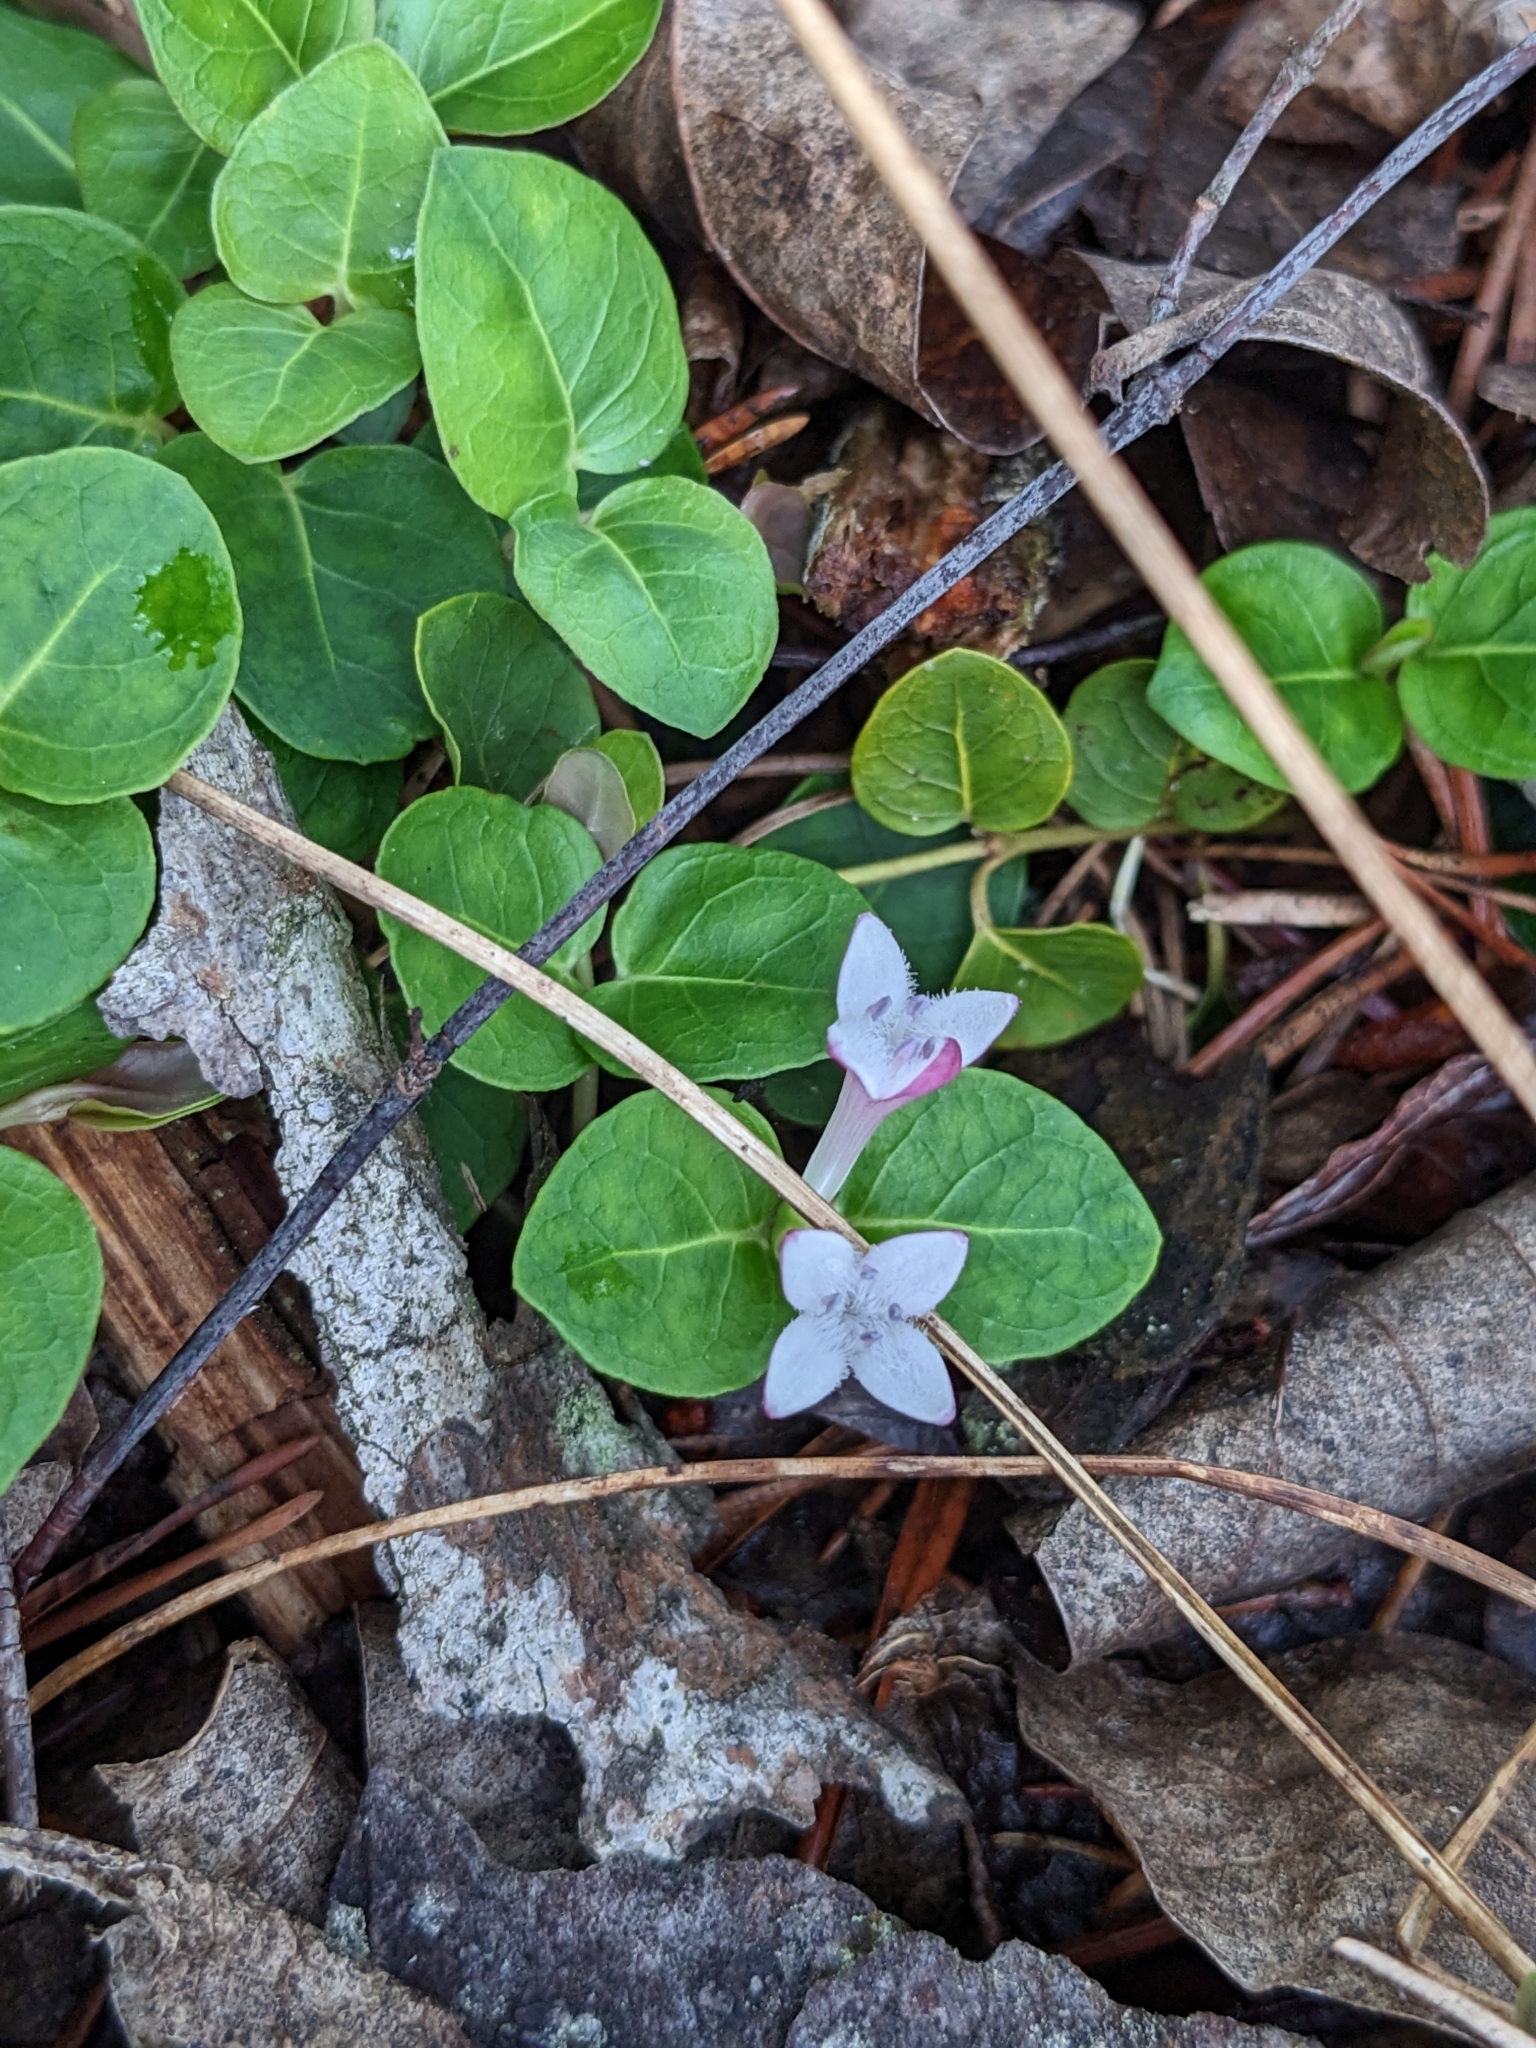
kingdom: Plantae
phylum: Tracheophyta
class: Magnoliopsida
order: Gentianales
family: Rubiaceae
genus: Mitchella
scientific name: Mitchella repens
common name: Partridge-berry
